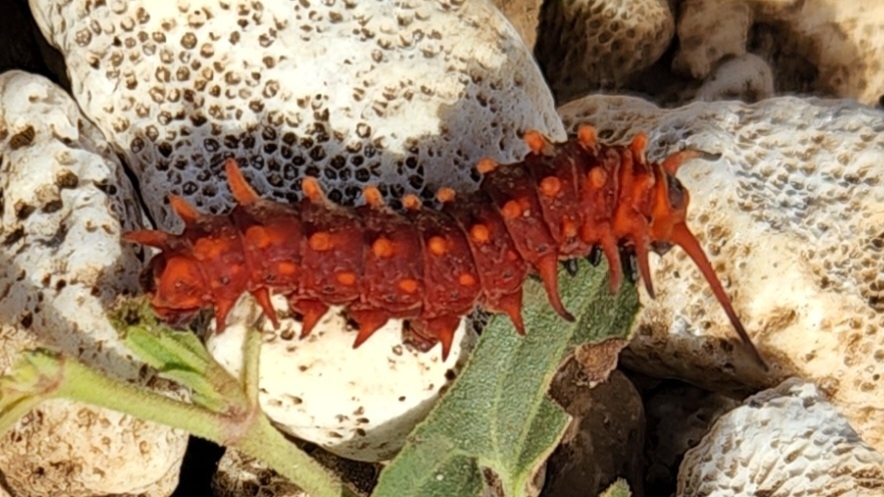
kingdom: Animalia
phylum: Arthropoda
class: Insecta
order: Lepidoptera
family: Papilionidae
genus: Battus
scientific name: Battus philenor
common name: Pipevine swallowtail
